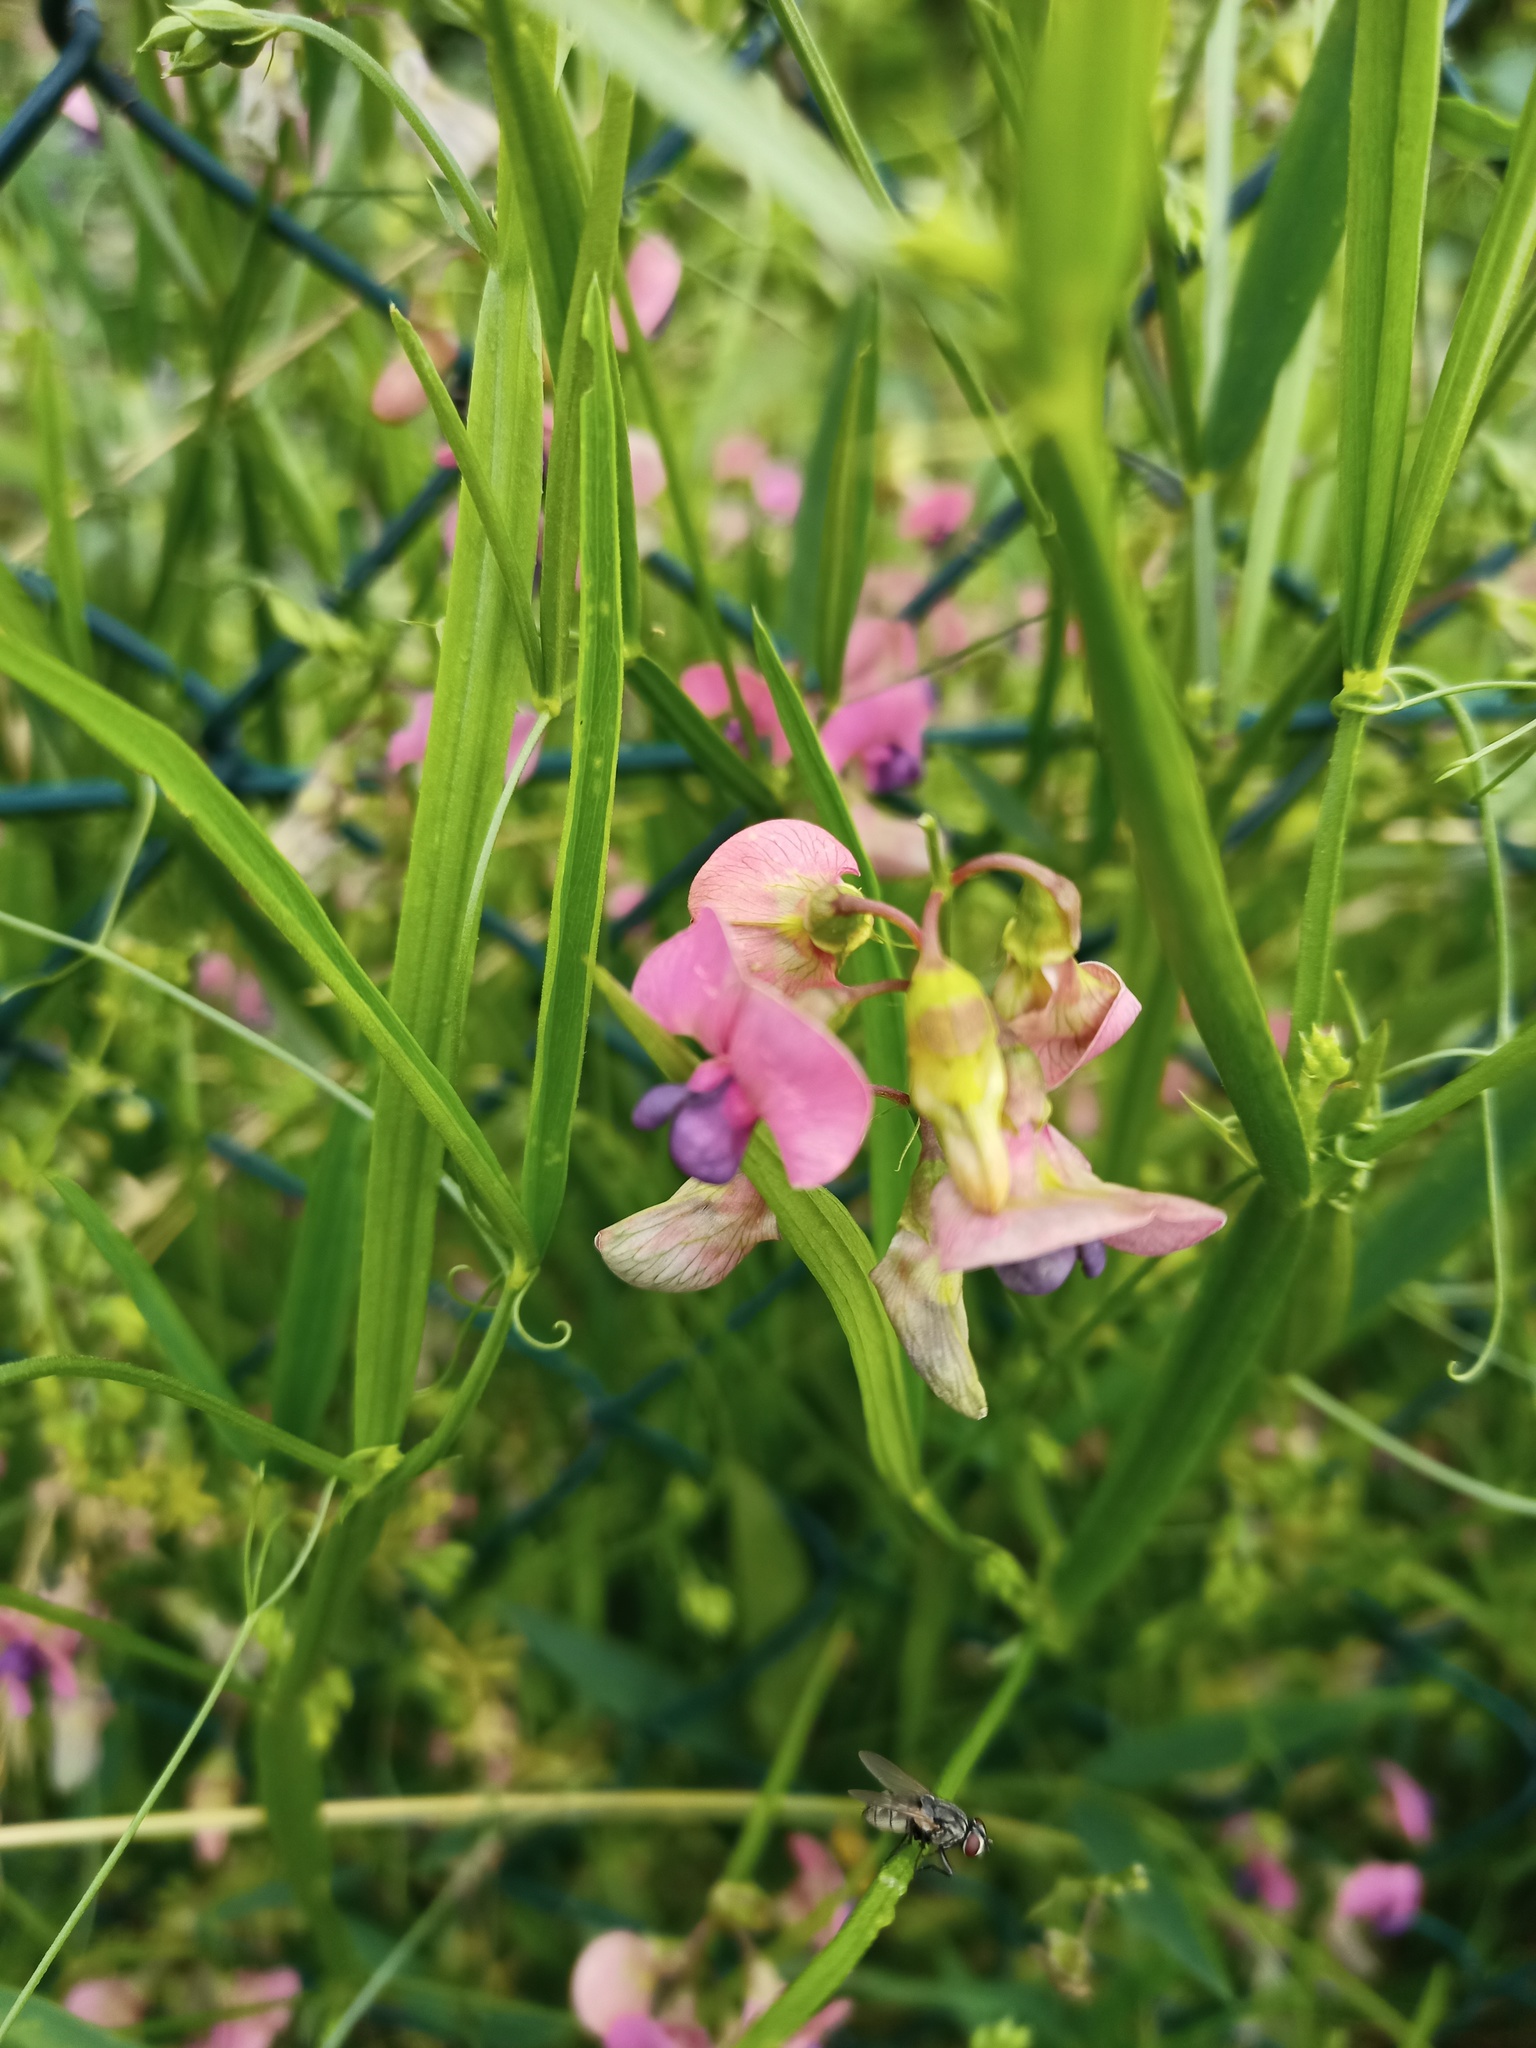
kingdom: Plantae
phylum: Tracheophyta
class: Magnoliopsida
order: Fabales
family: Fabaceae
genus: Lathyrus
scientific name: Lathyrus sylvestris
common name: Flat pea
